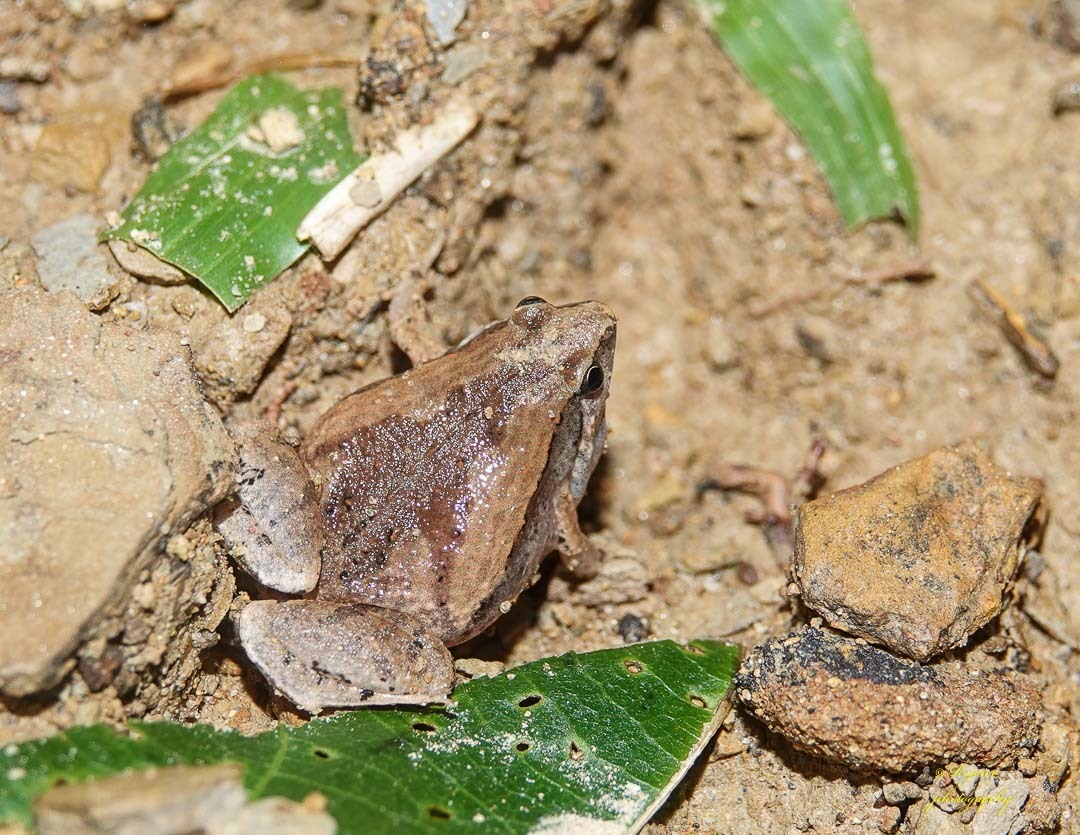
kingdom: Animalia
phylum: Chordata
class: Amphibia
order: Anura
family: Microhylidae
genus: Microhyla
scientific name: Microhyla mymensinghensis
